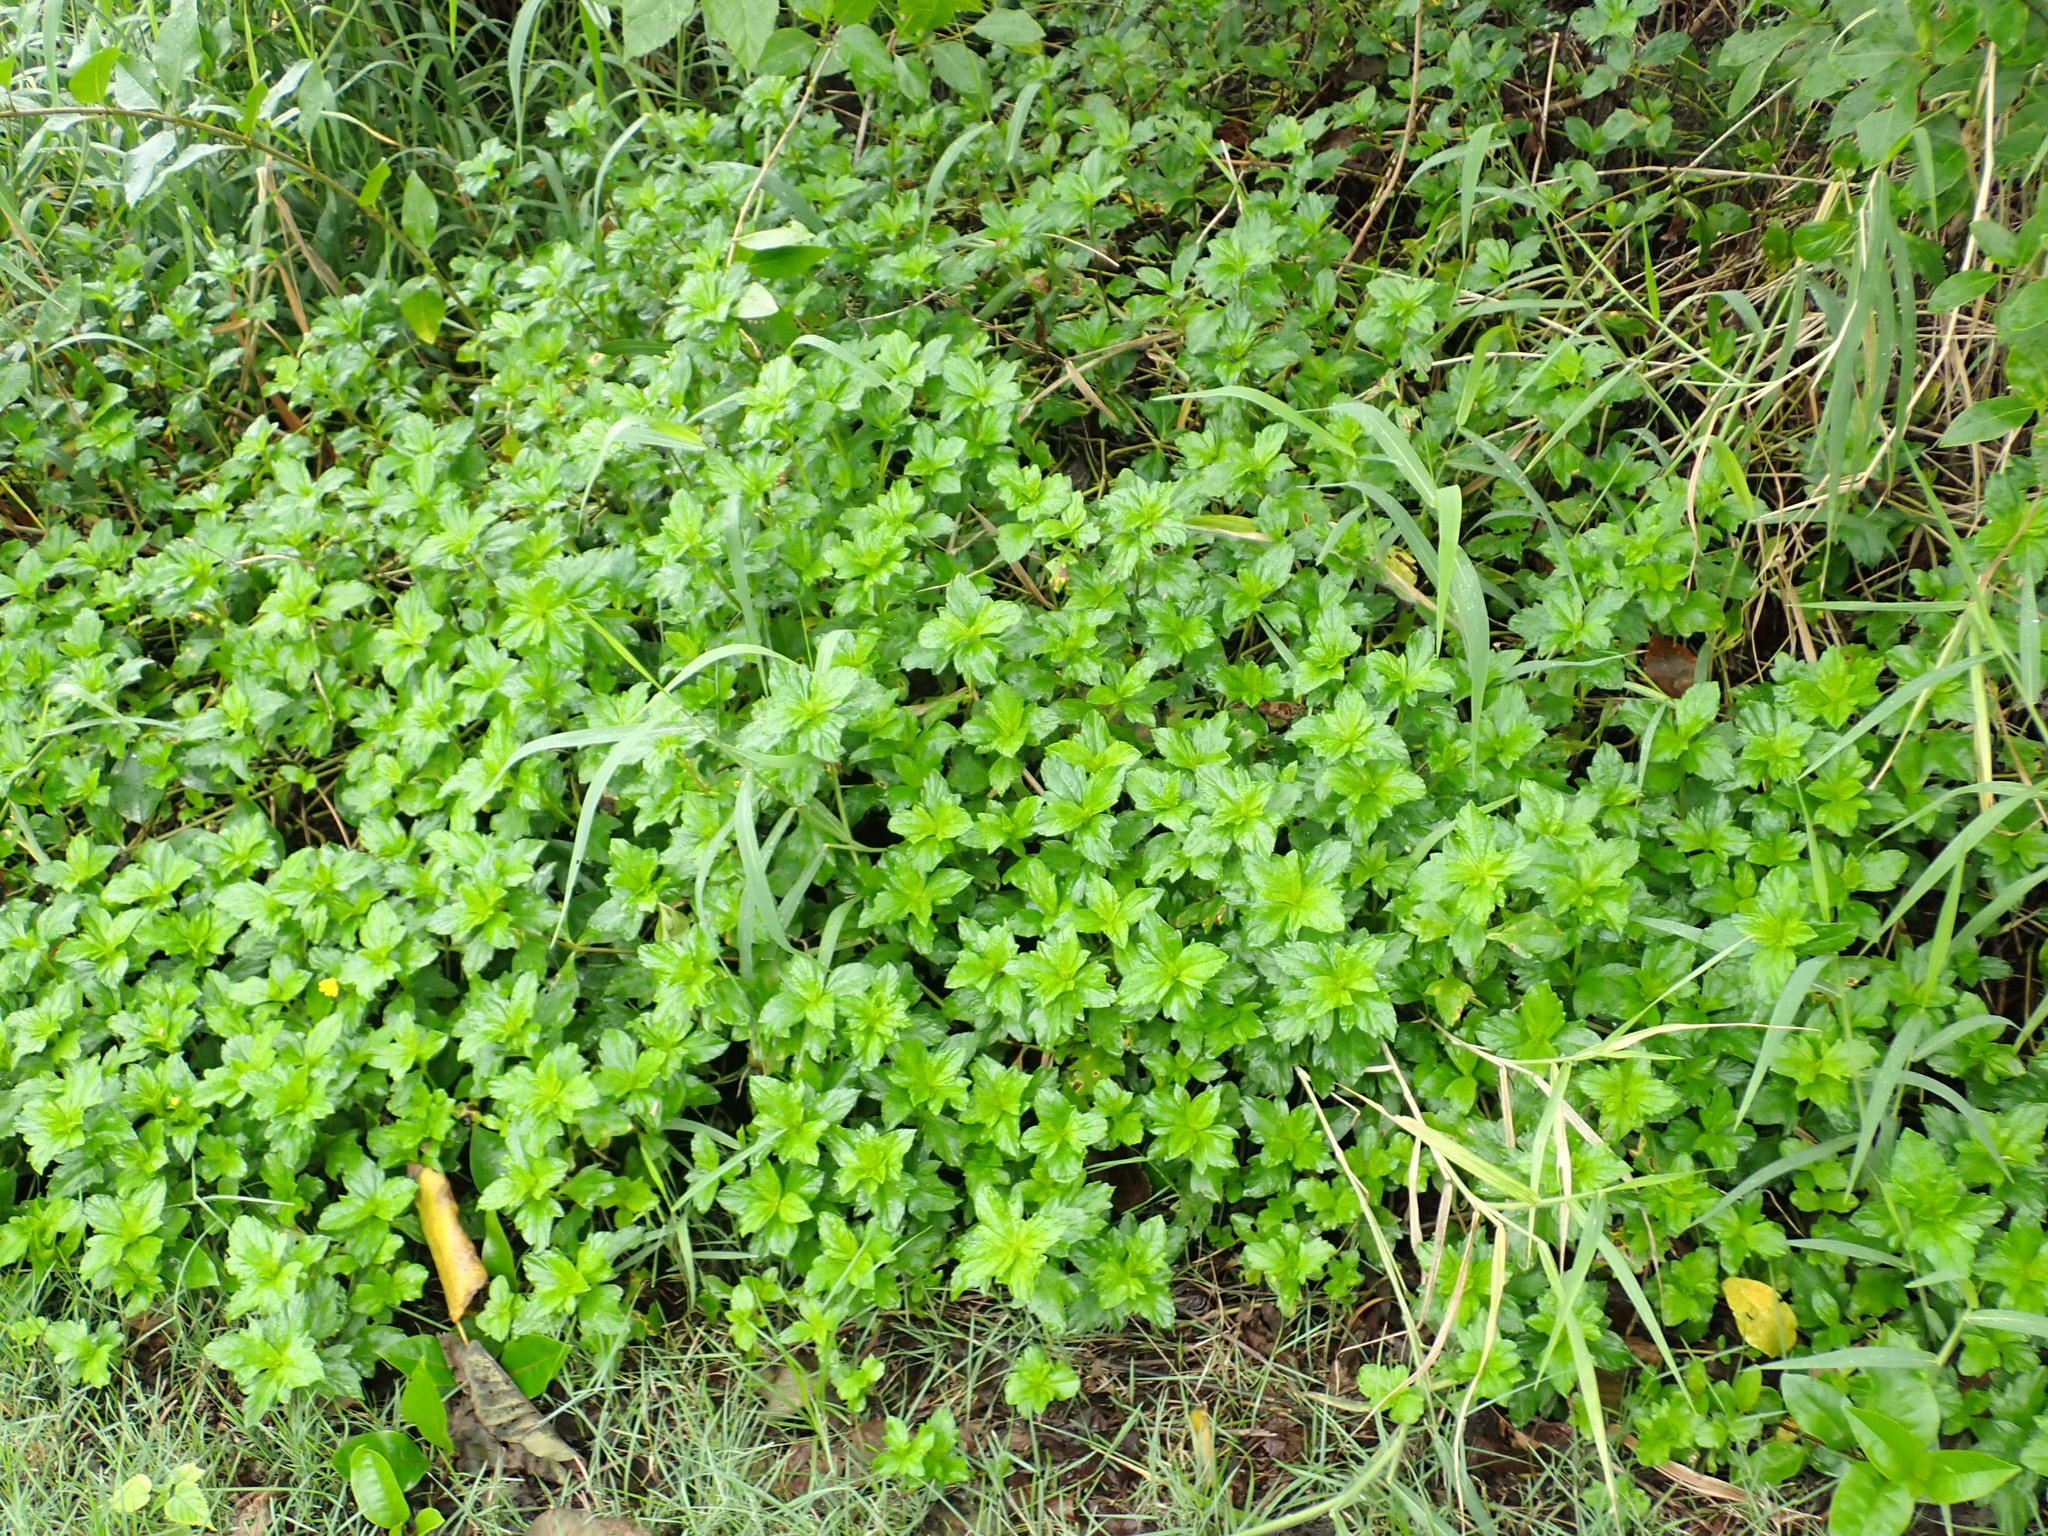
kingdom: Plantae
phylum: Tracheophyta
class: Magnoliopsida
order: Asterales
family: Asteraceae
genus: Sphagneticola
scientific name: Sphagneticola trilobata
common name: Bay biscayne creeping-oxeye
